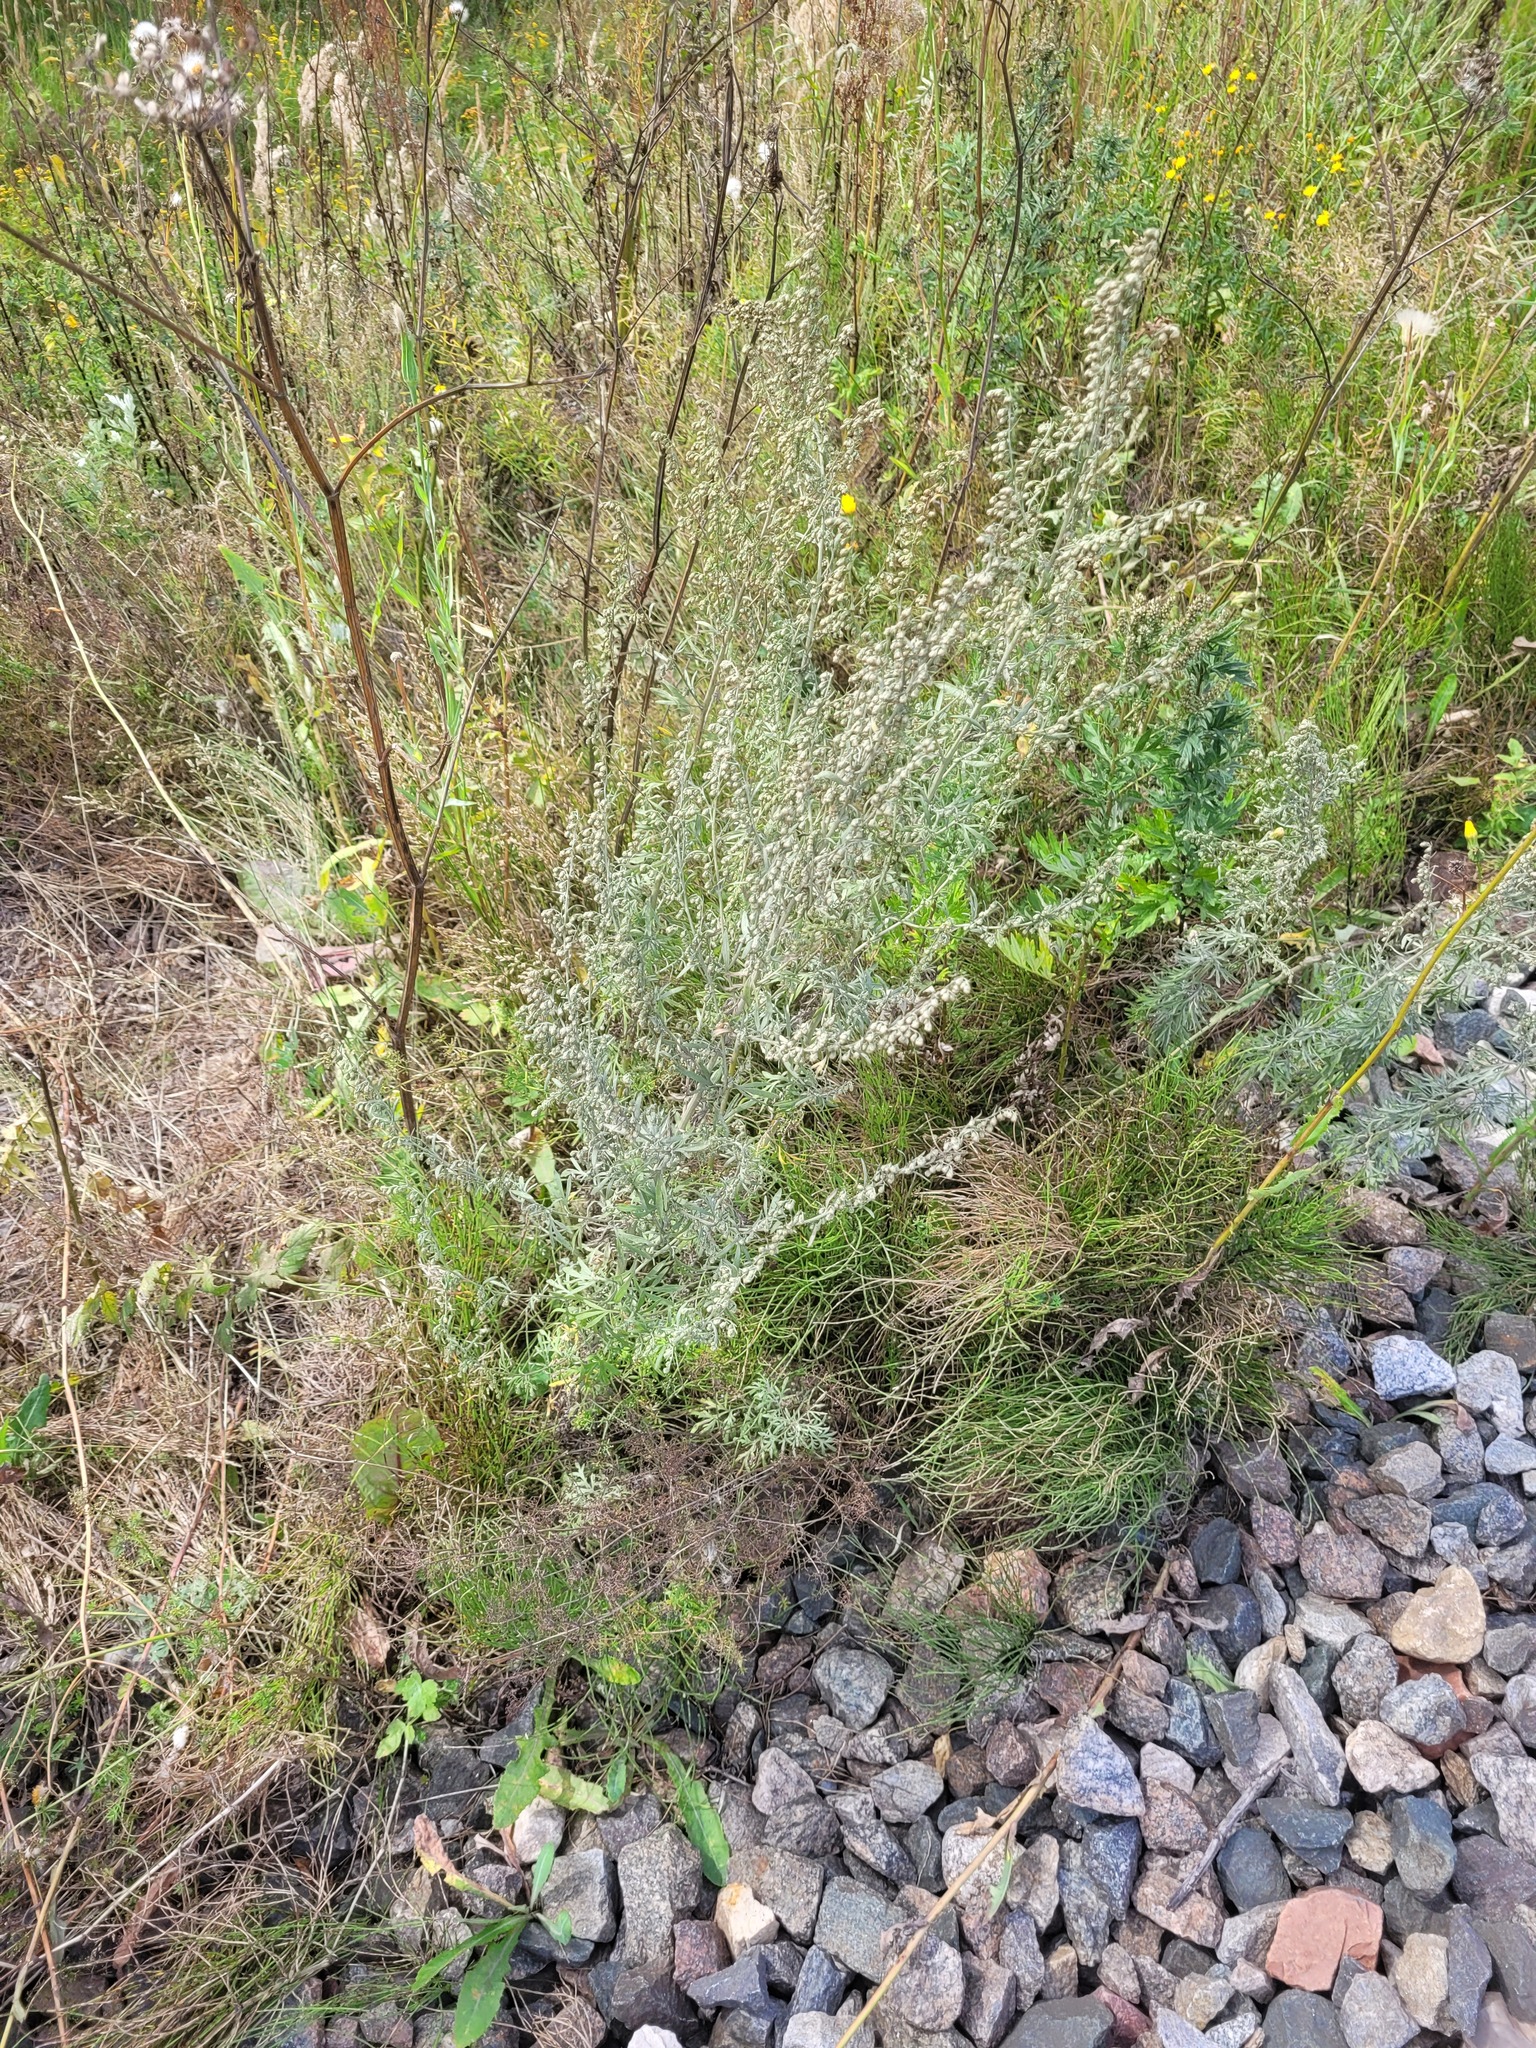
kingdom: Plantae
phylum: Tracheophyta
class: Magnoliopsida
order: Asterales
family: Asteraceae
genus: Artemisia
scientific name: Artemisia absinthium
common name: Wormwood
